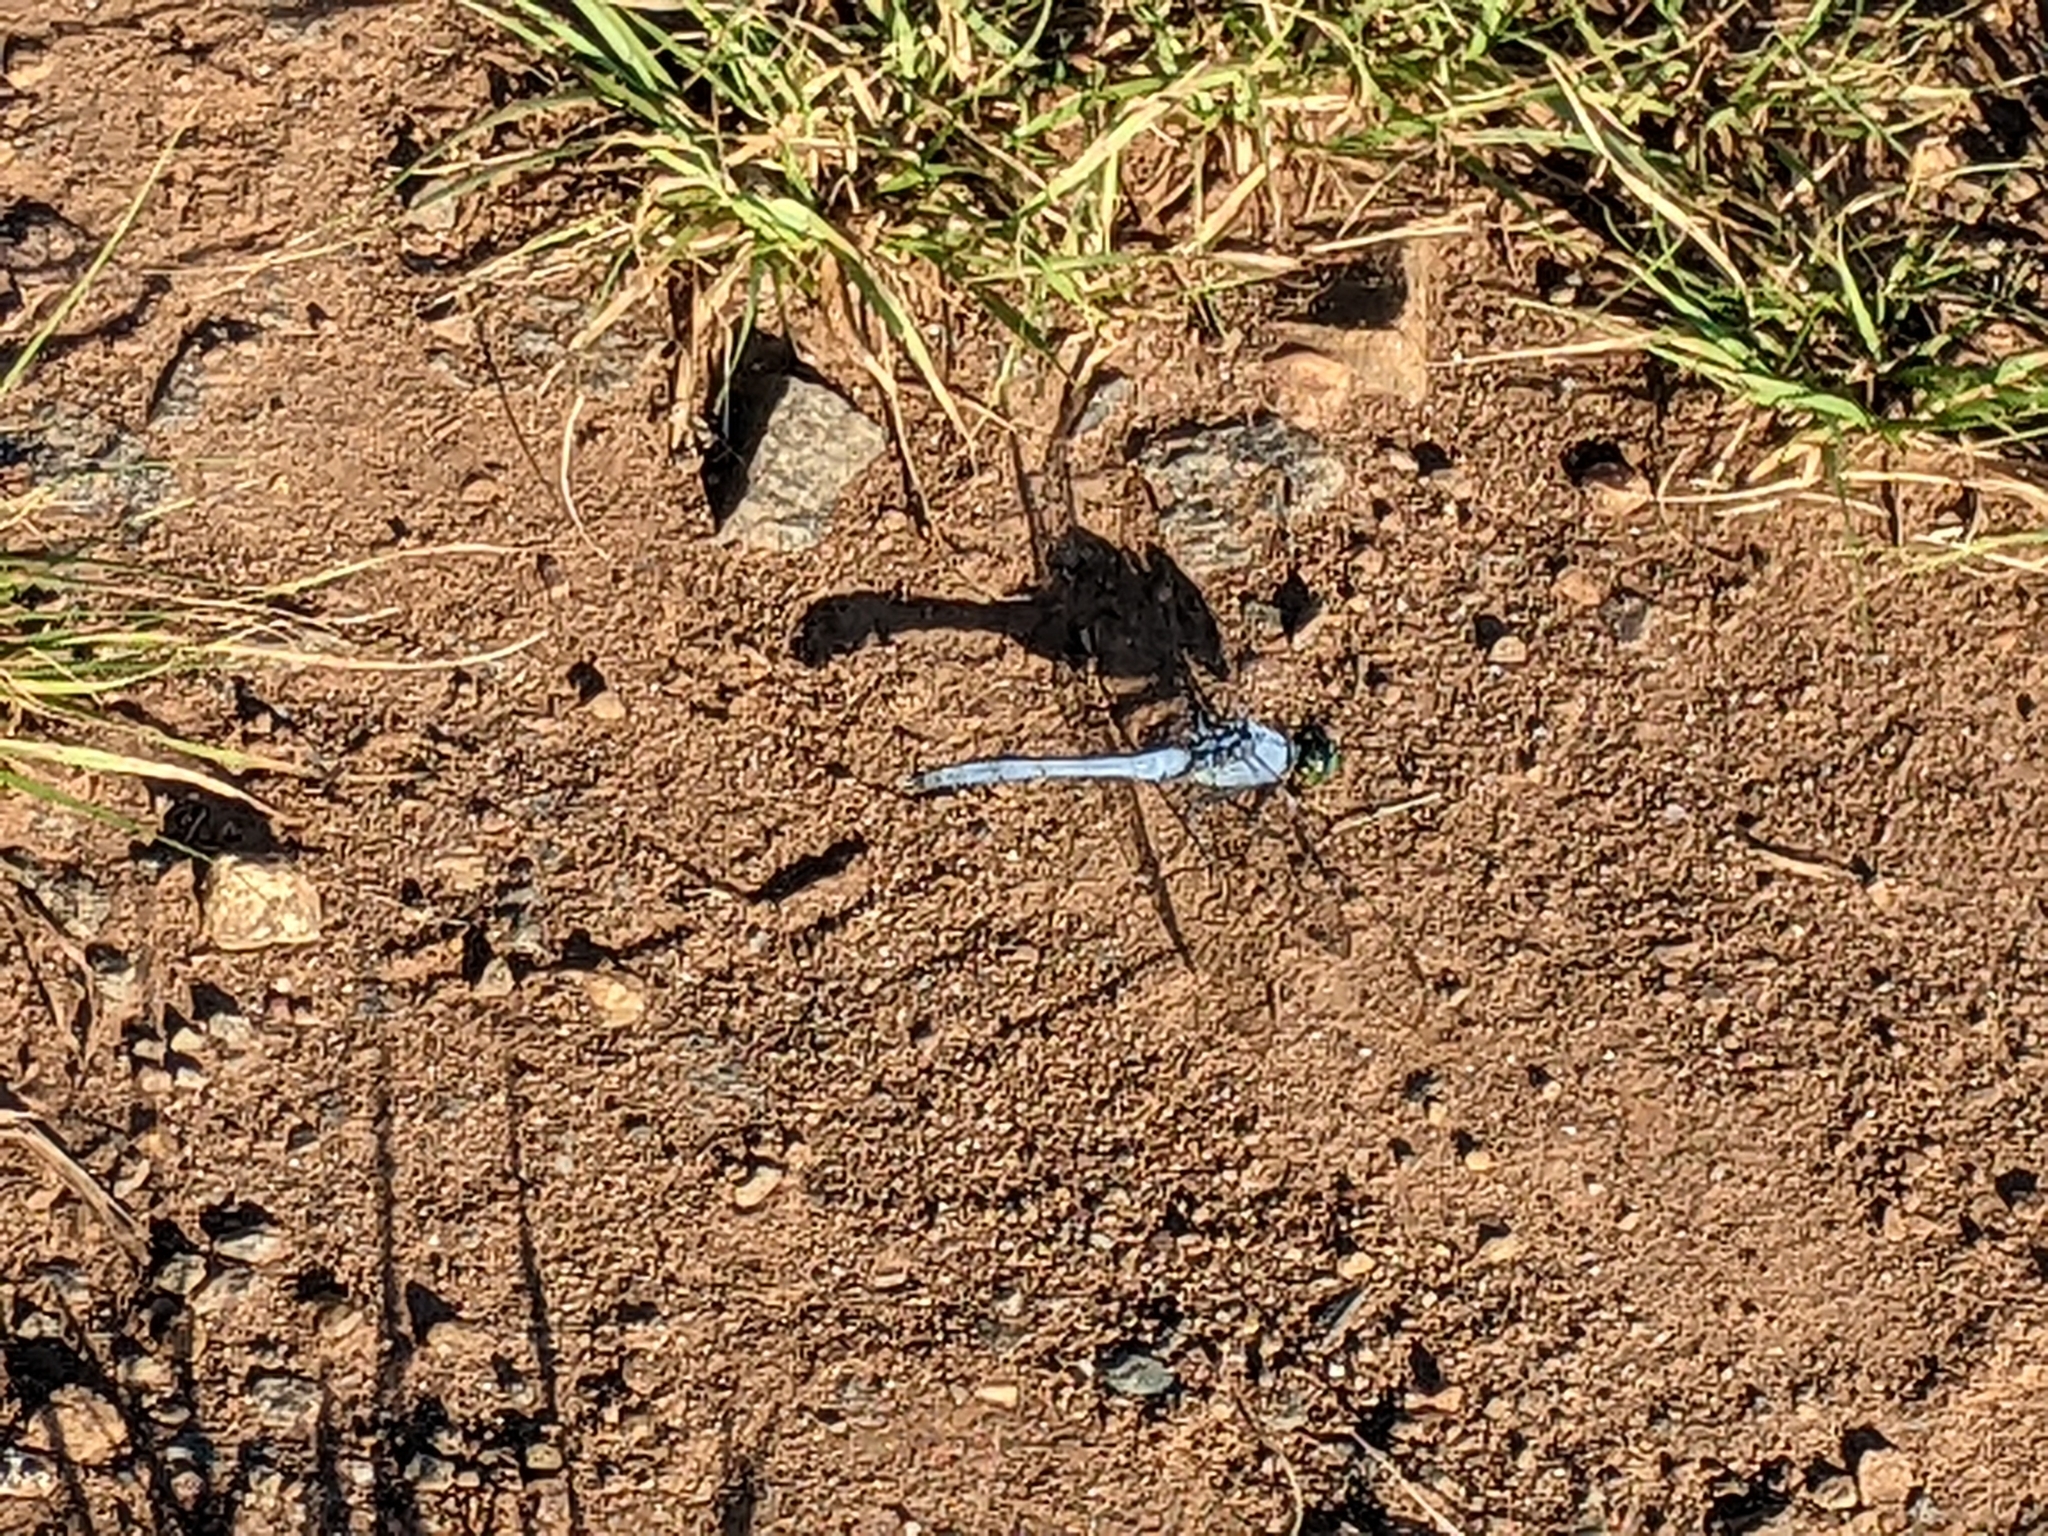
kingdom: Animalia
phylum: Arthropoda
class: Insecta
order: Odonata
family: Libellulidae
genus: Erythemis
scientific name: Erythemis simplicicollis
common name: Eastern pondhawk
